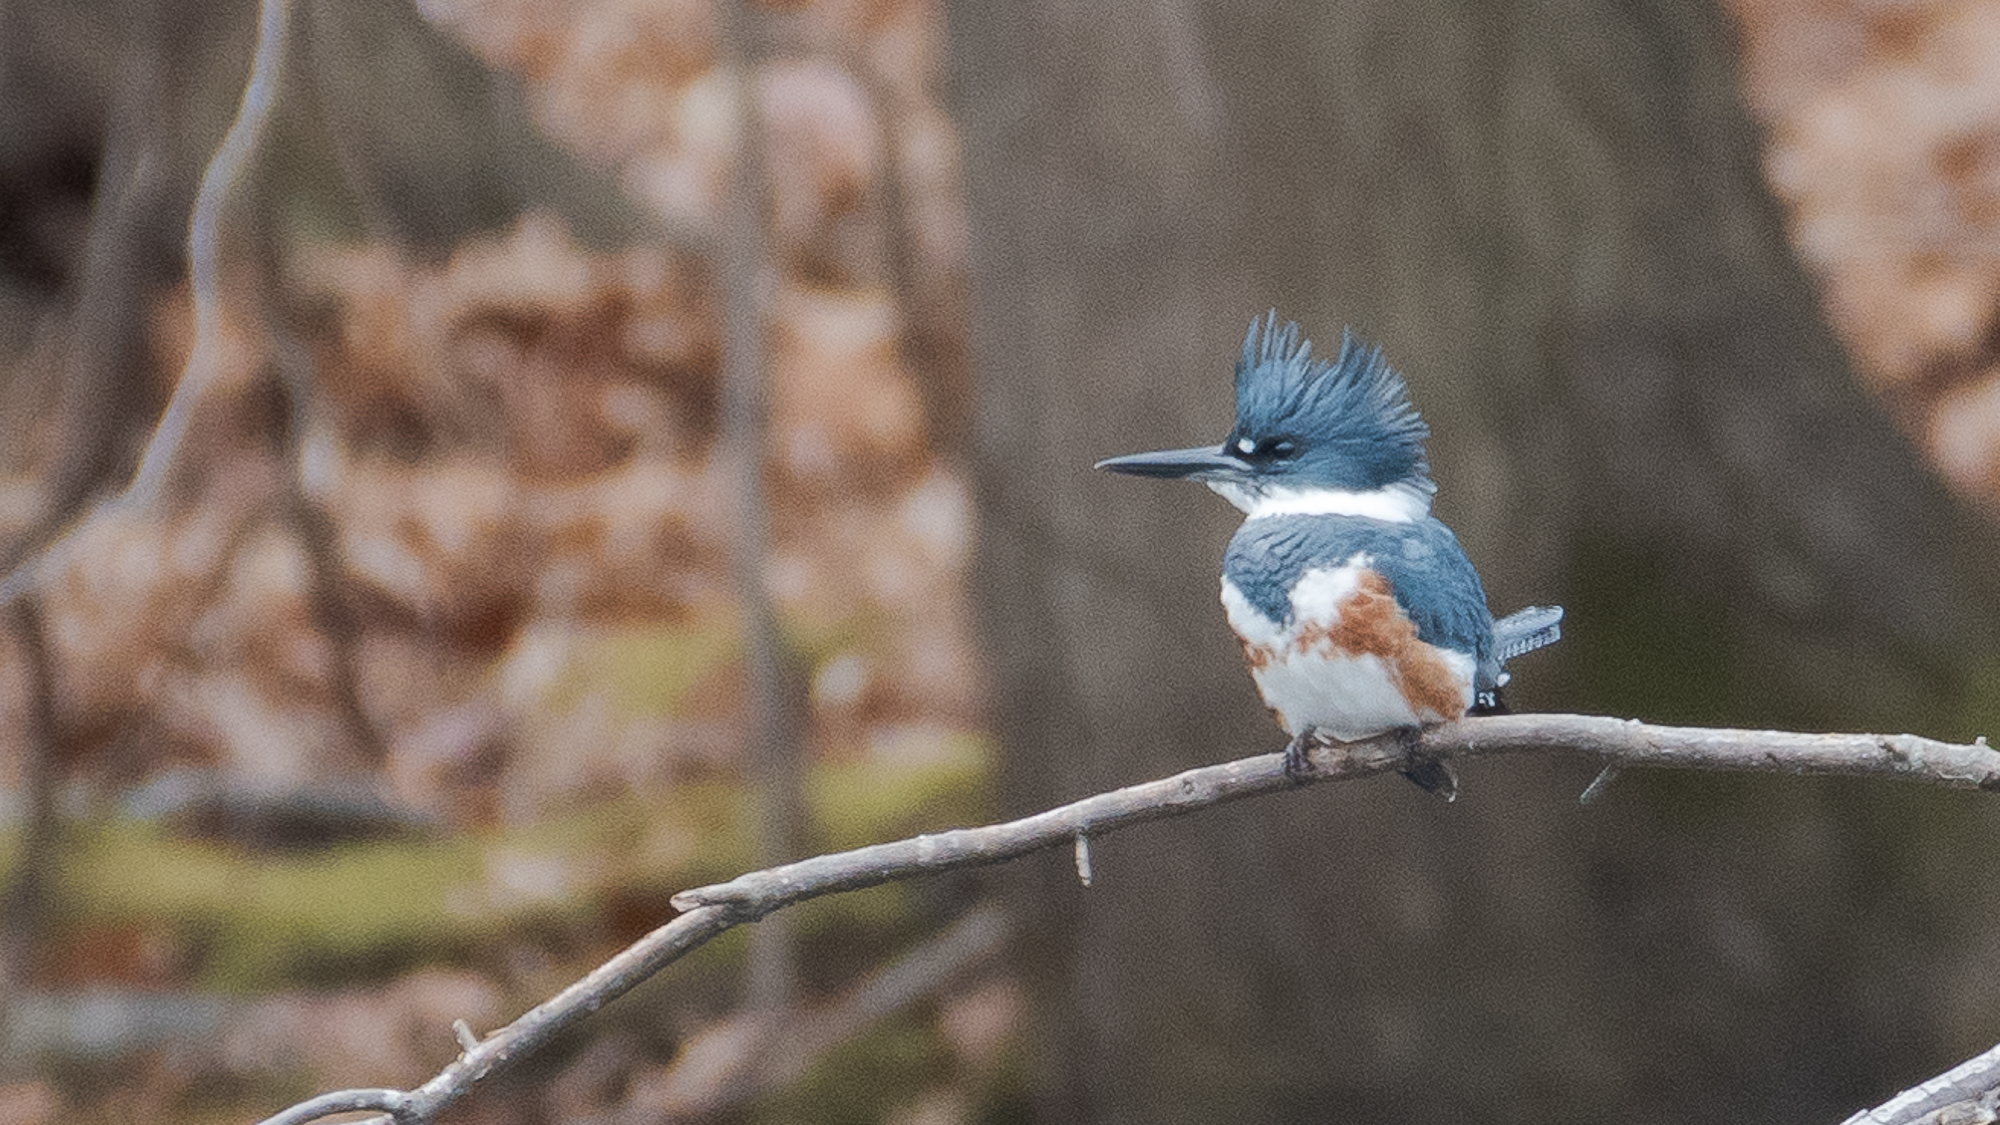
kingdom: Animalia
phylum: Chordata
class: Aves
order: Coraciiformes
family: Alcedinidae
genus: Megaceryle
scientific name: Megaceryle alcyon
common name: Belted kingfisher
